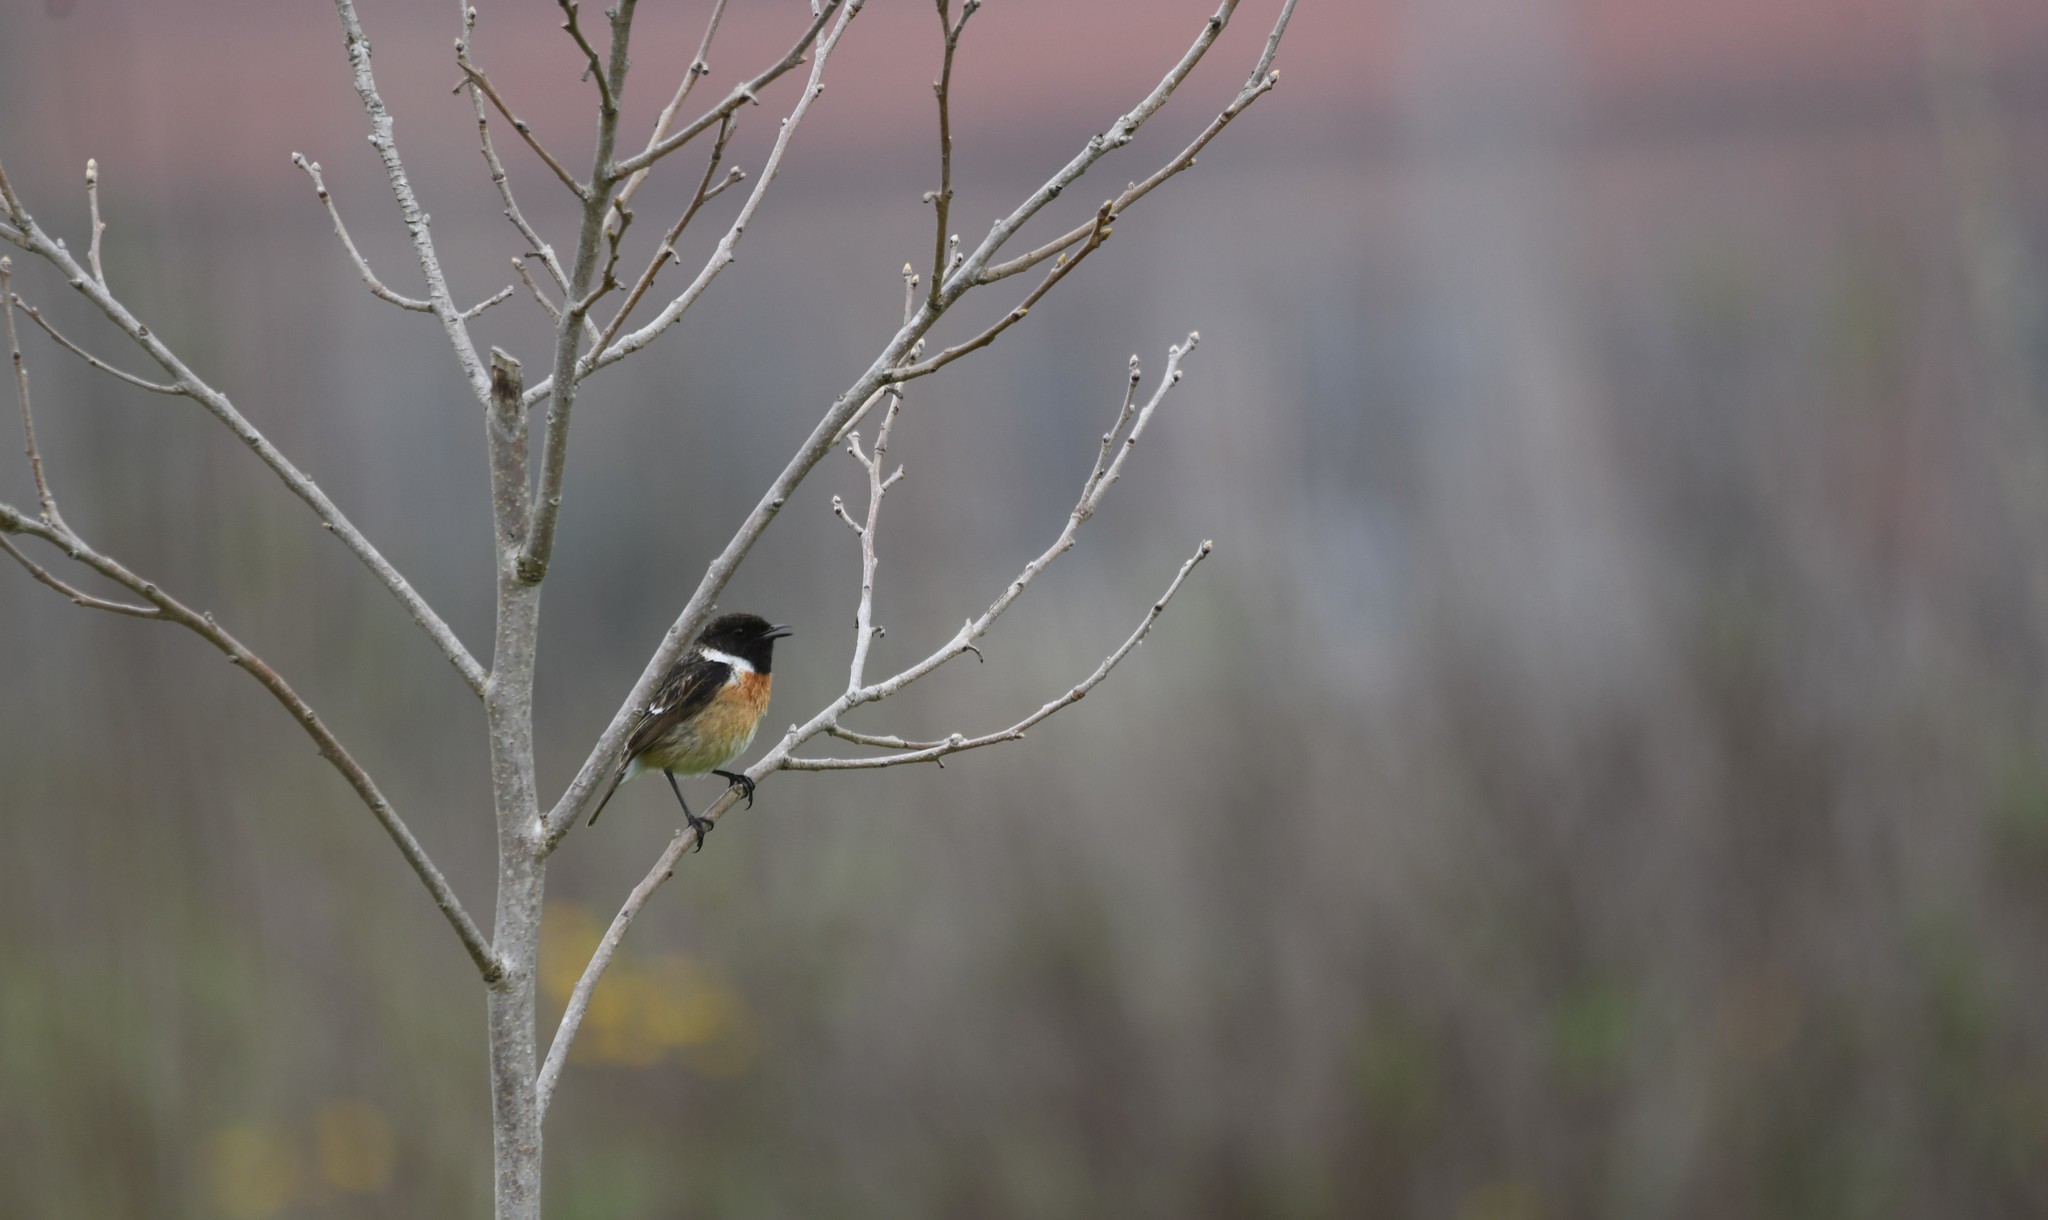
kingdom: Animalia
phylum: Chordata
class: Aves
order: Passeriformes
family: Muscicapidae
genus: Saxicola
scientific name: Saxicola rubicola
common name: European stonechat
